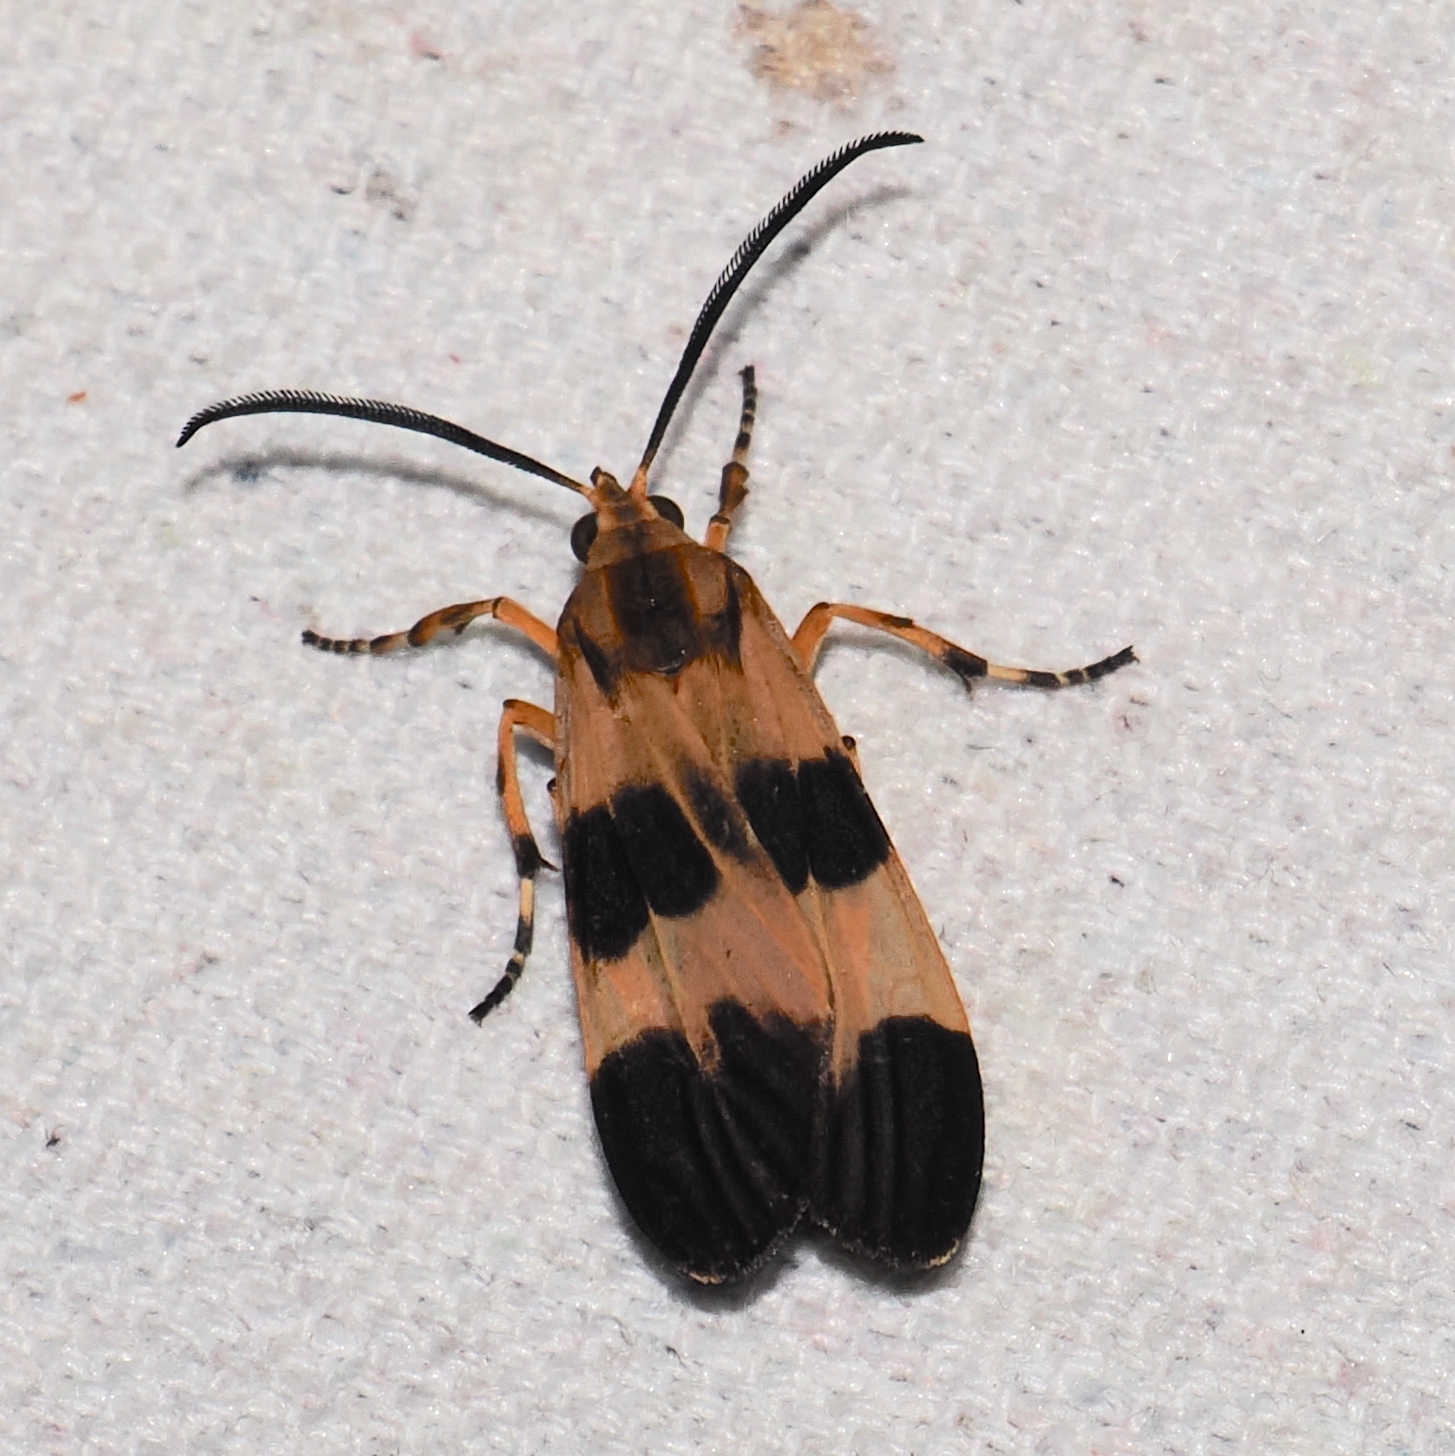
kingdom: Animalia
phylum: Arthropoda
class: Insecta
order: Lepidoptera
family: Erebidae
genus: Correbia
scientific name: Correbia lycoides
